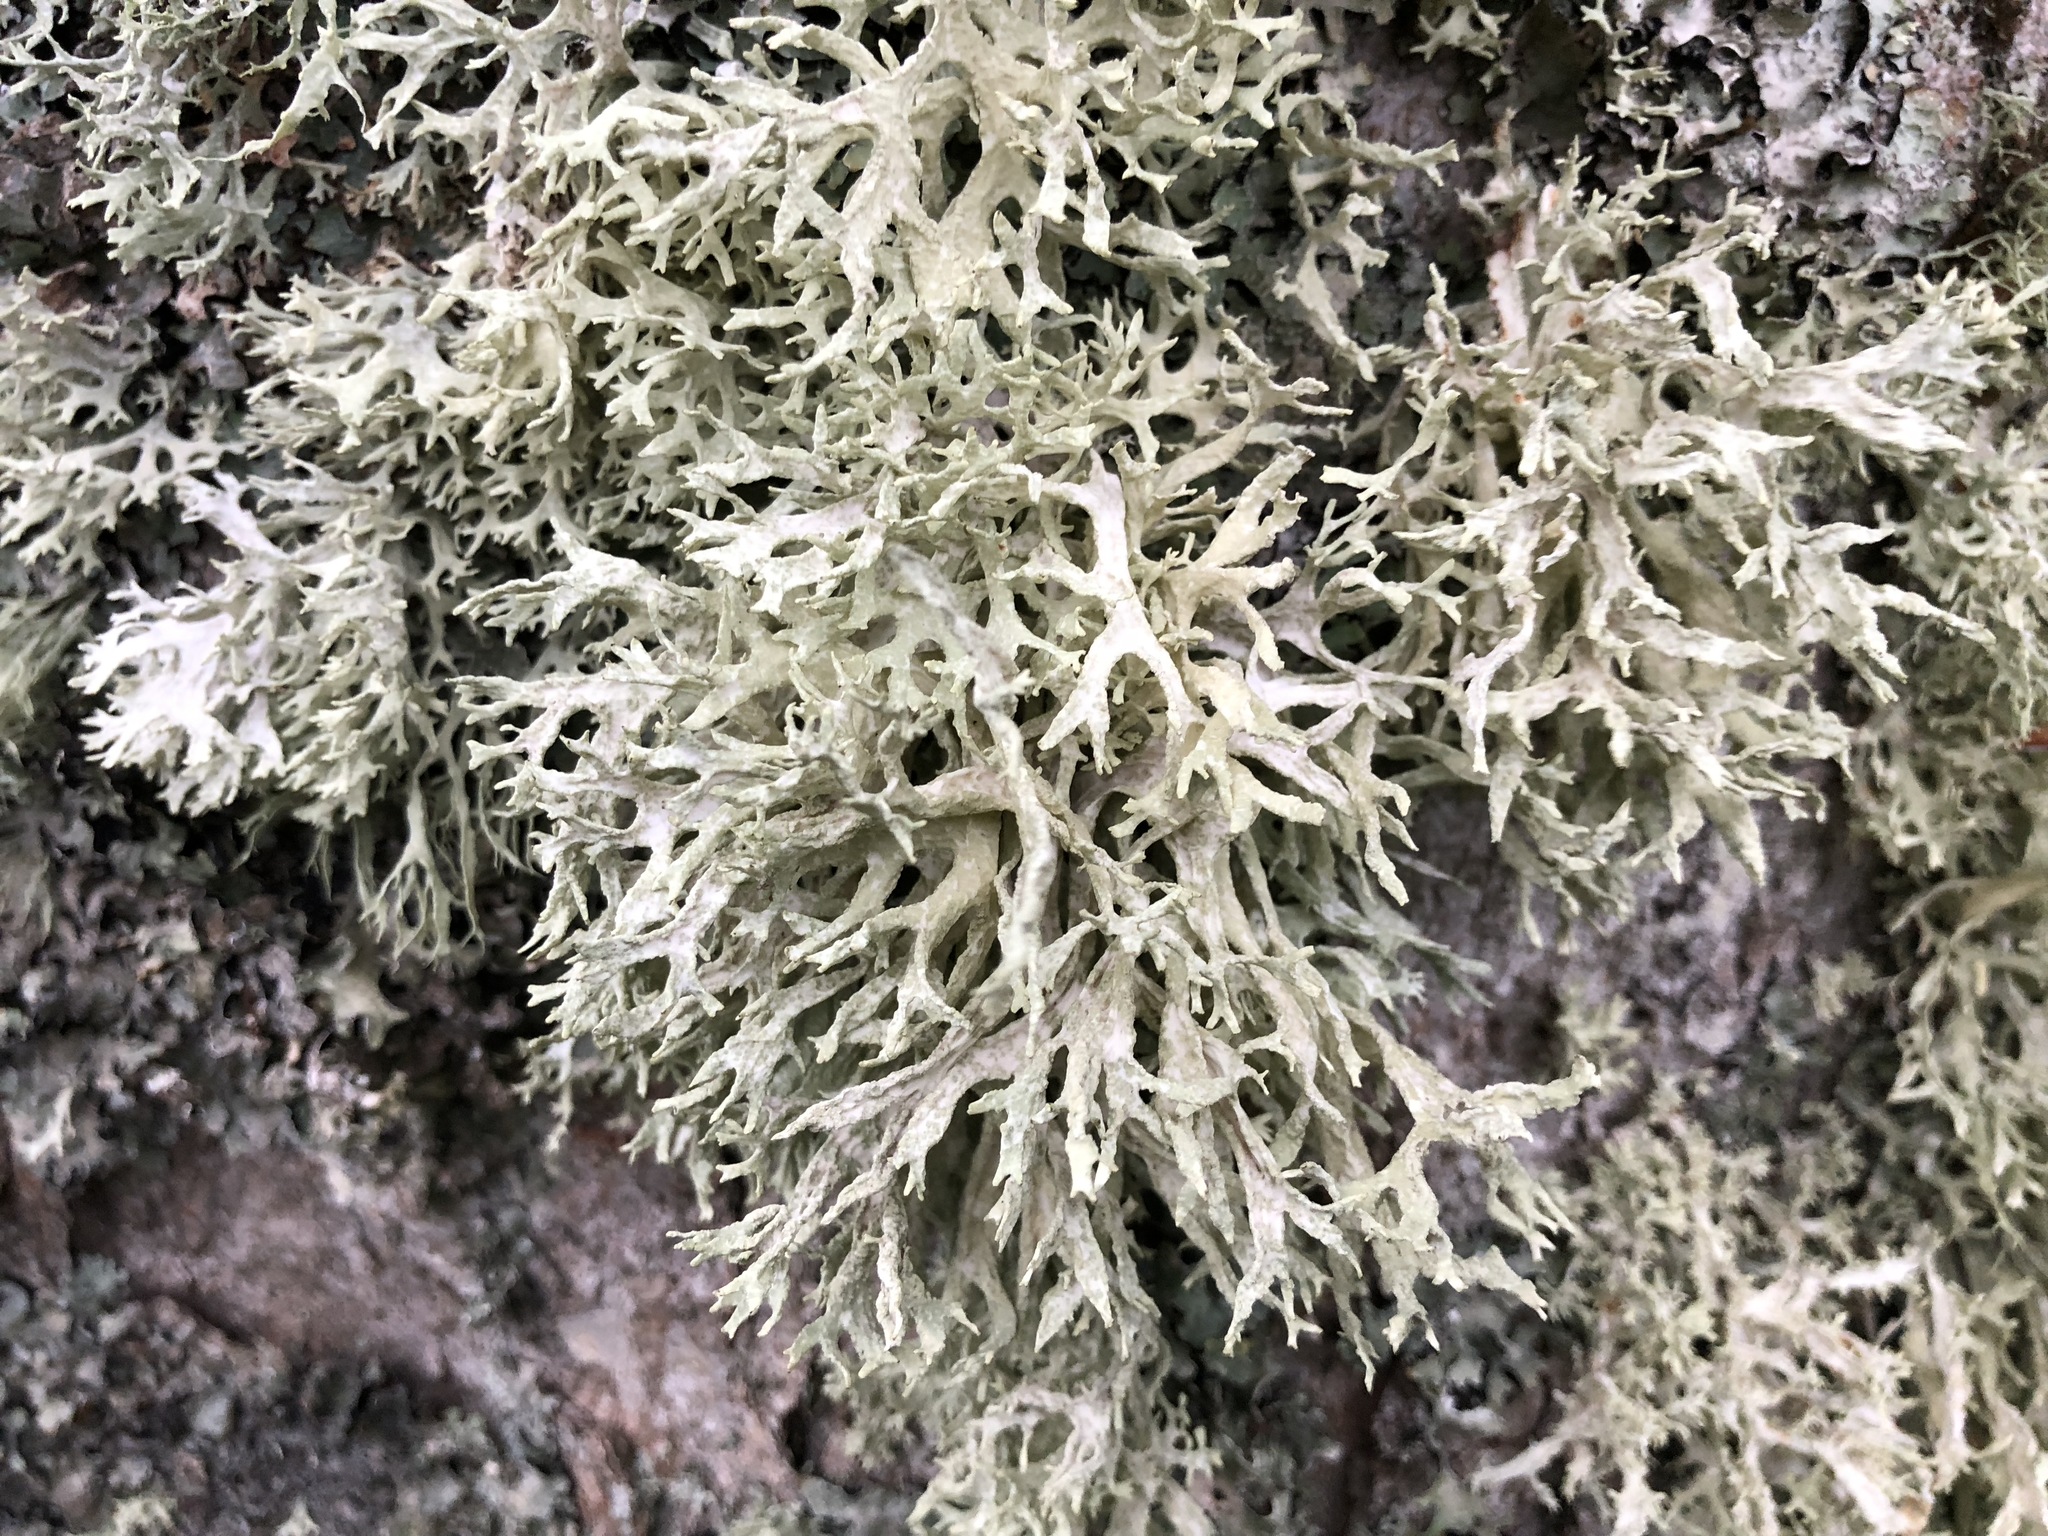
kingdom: Fungi
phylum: Ascomycota
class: Lecanoromycetes
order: Lecanorales
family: Parmeliaceae
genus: Evernia
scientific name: Evernia prunastri
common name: Oak moss
